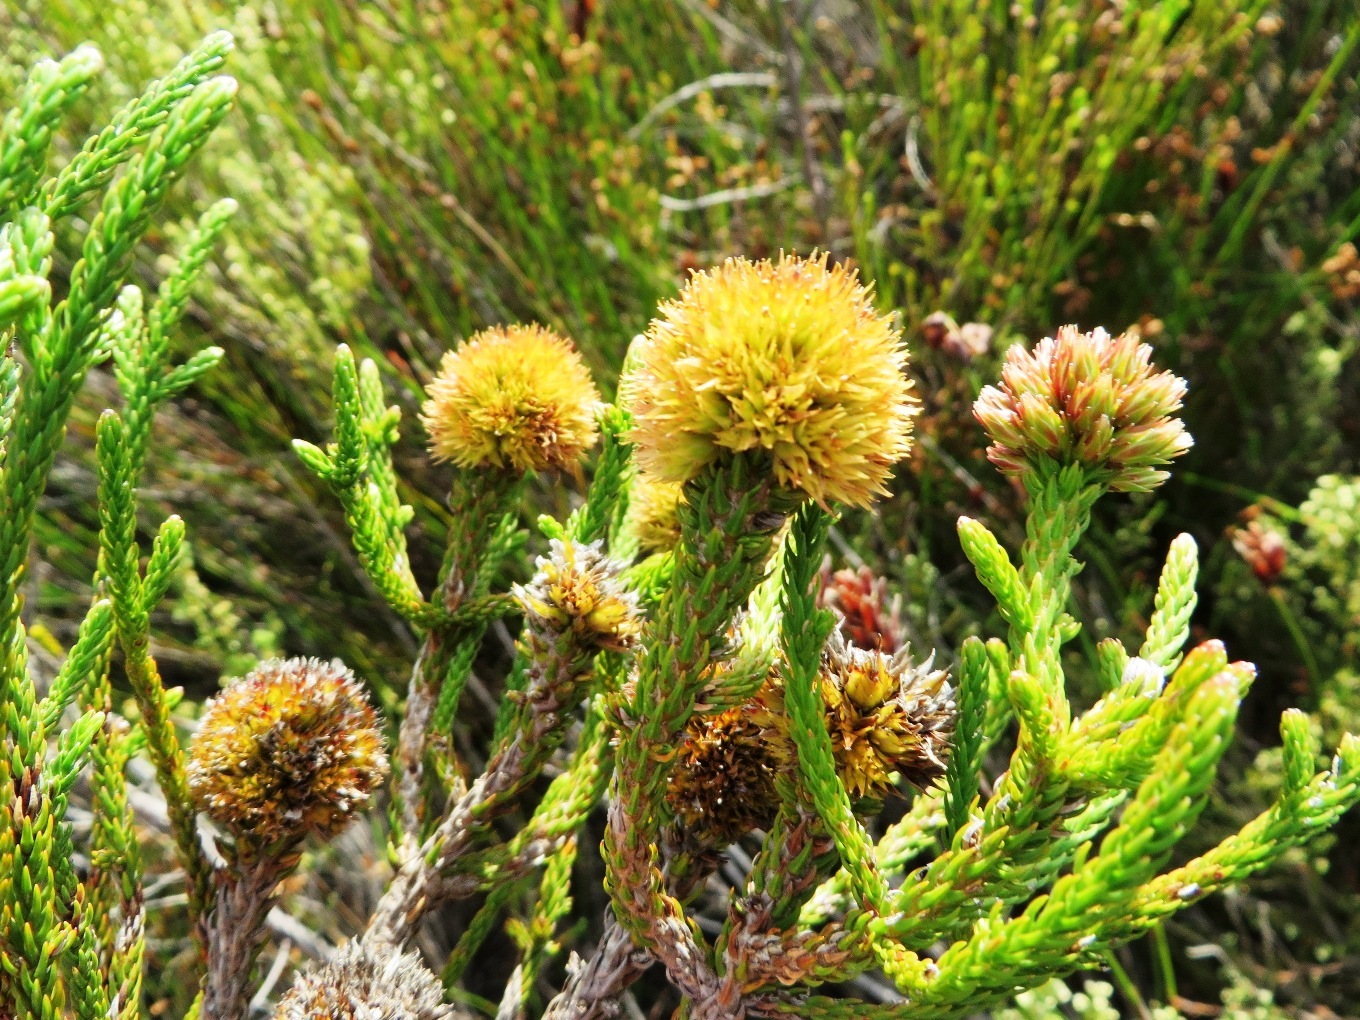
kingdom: Plantae
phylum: Tracheophyta
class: Magnoliopsida
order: Bruniales
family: Bruniaceae
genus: Brunia
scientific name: Brunia fragarioides
